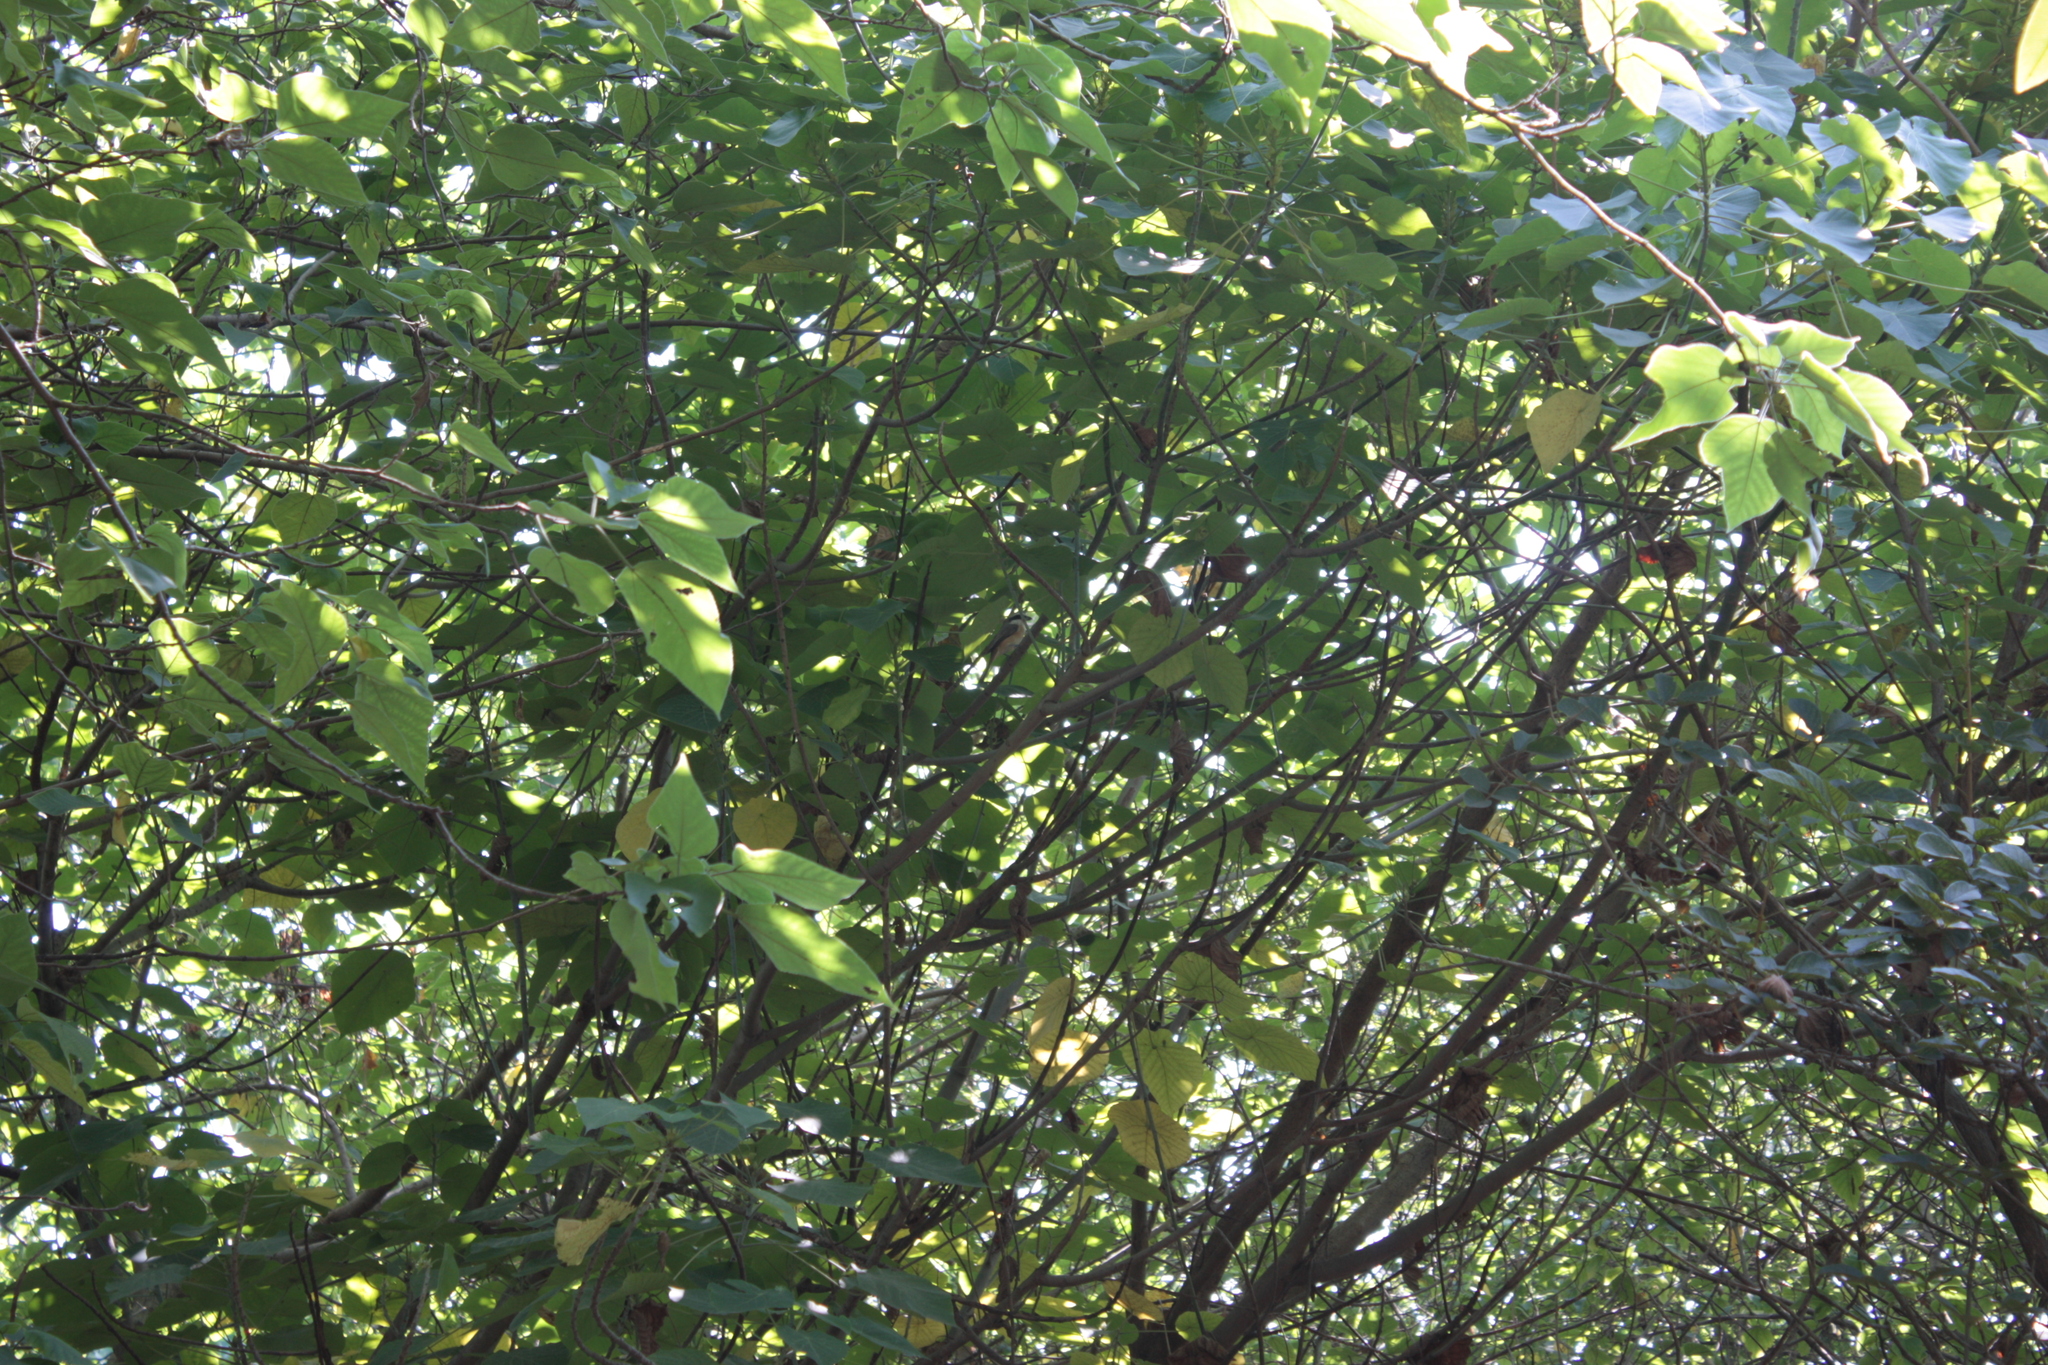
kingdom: Animalia
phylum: Chordata
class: Aves
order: Passeriformes
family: Laniidae
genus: Lanius
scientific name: Lanius cristatus
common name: Brown shrike
